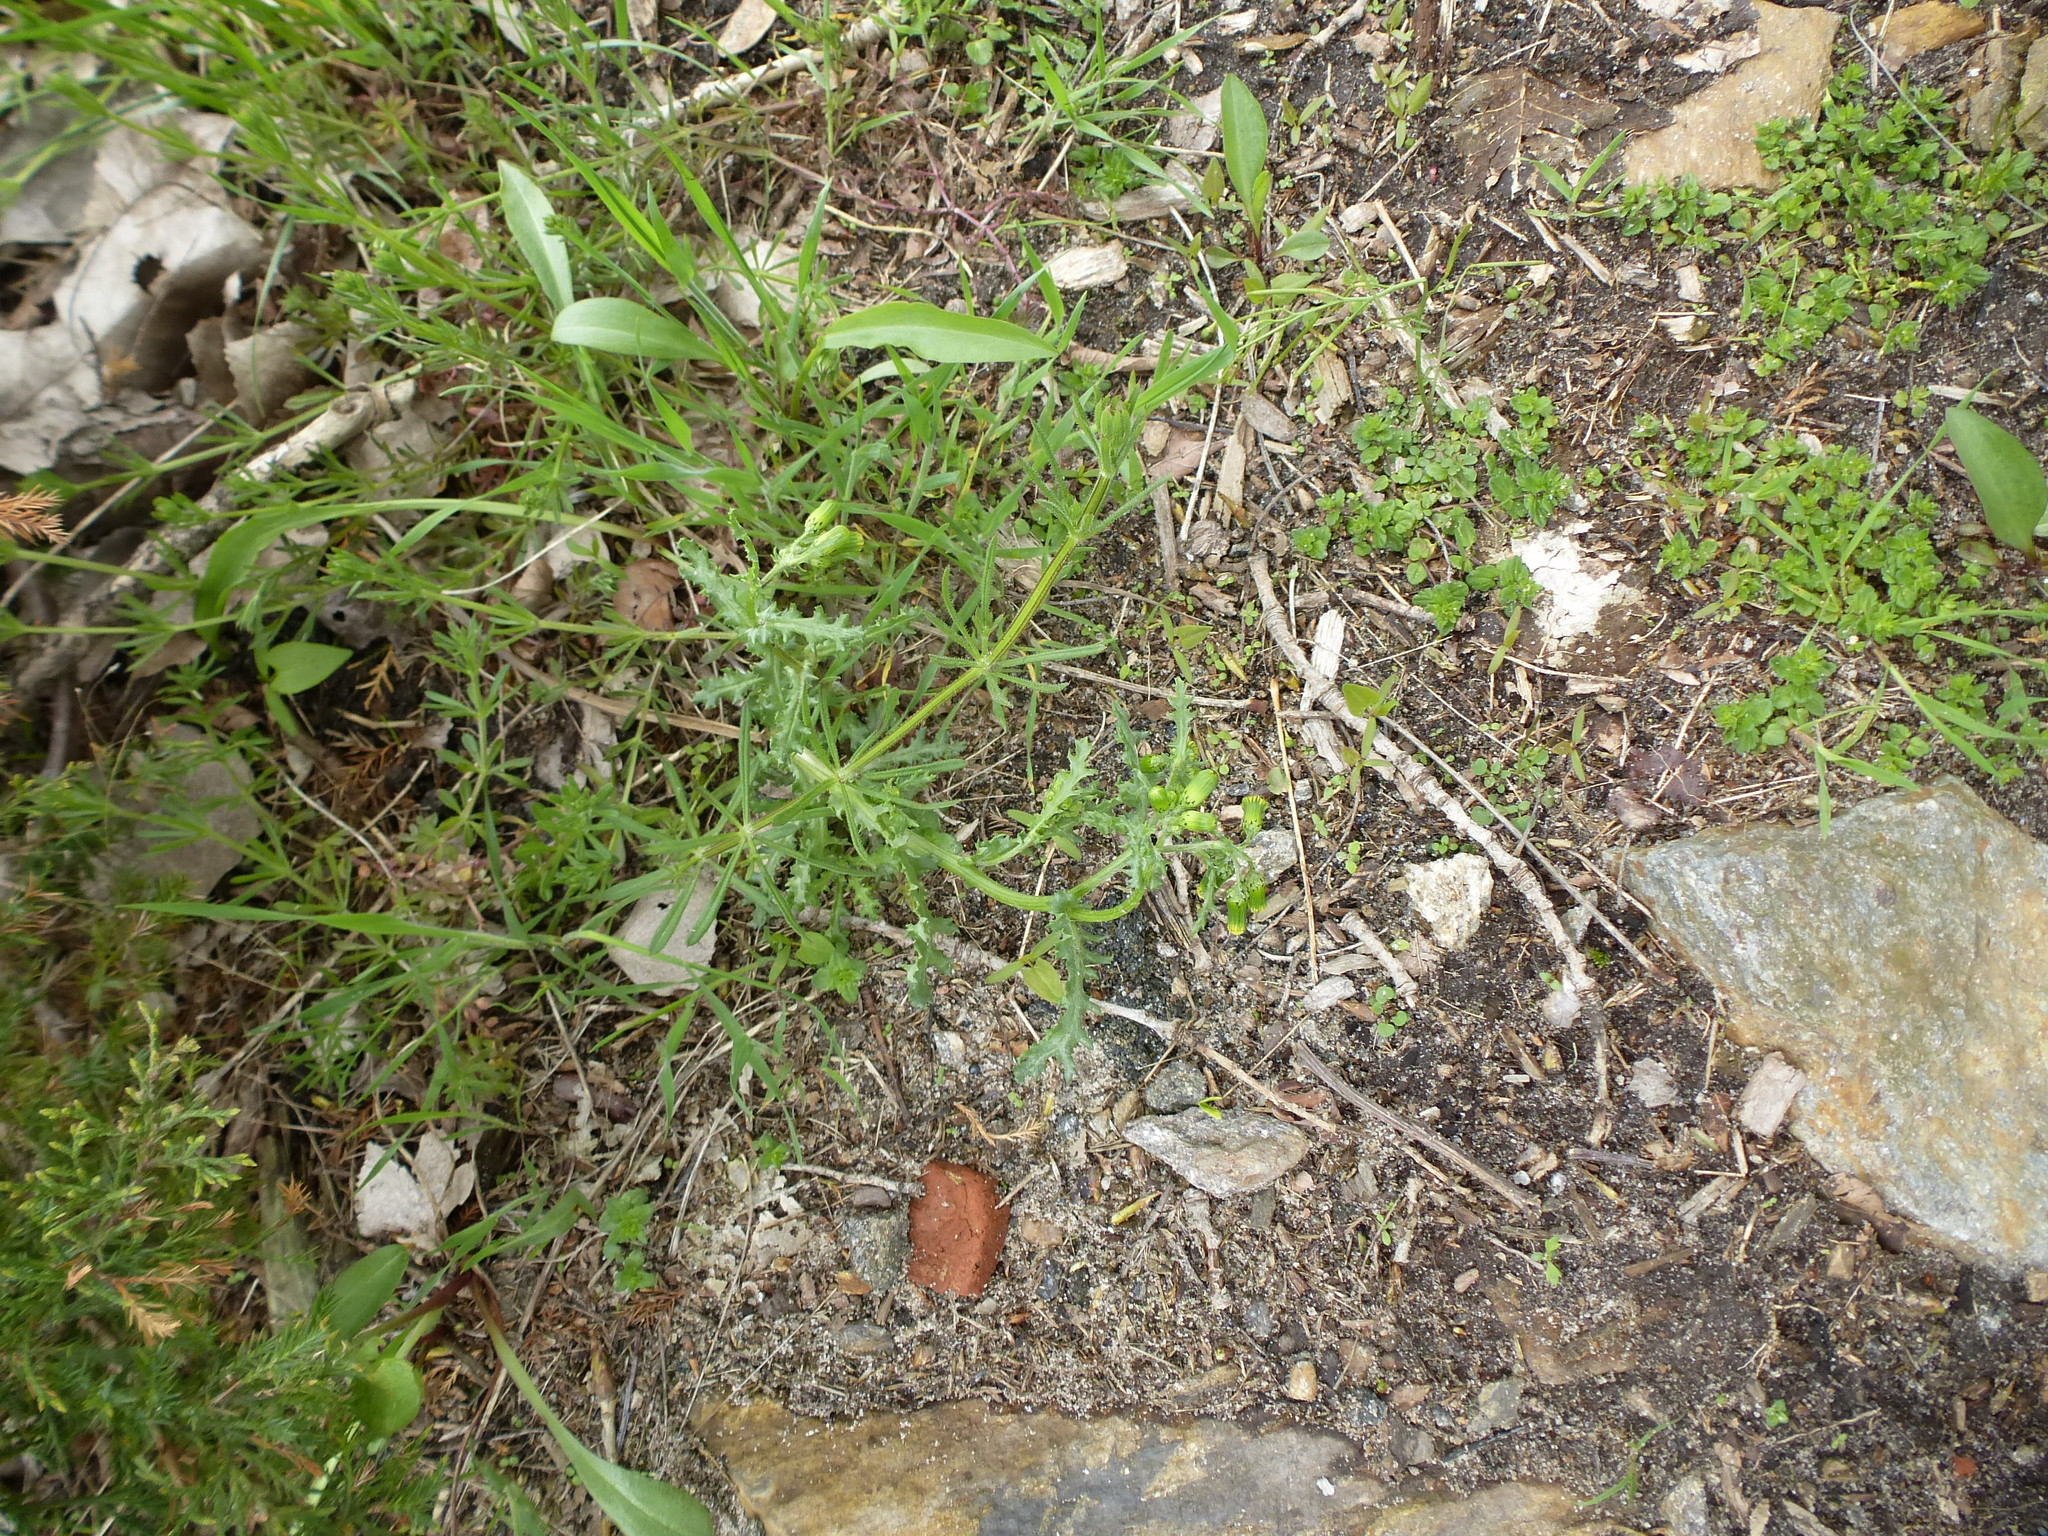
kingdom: Plantae
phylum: Tracheophyta
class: Magnoliopsida
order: Asterales
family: Asteraceae
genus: Senecio
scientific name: Senecio vulgaris
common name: Old-man-in-the-spring
